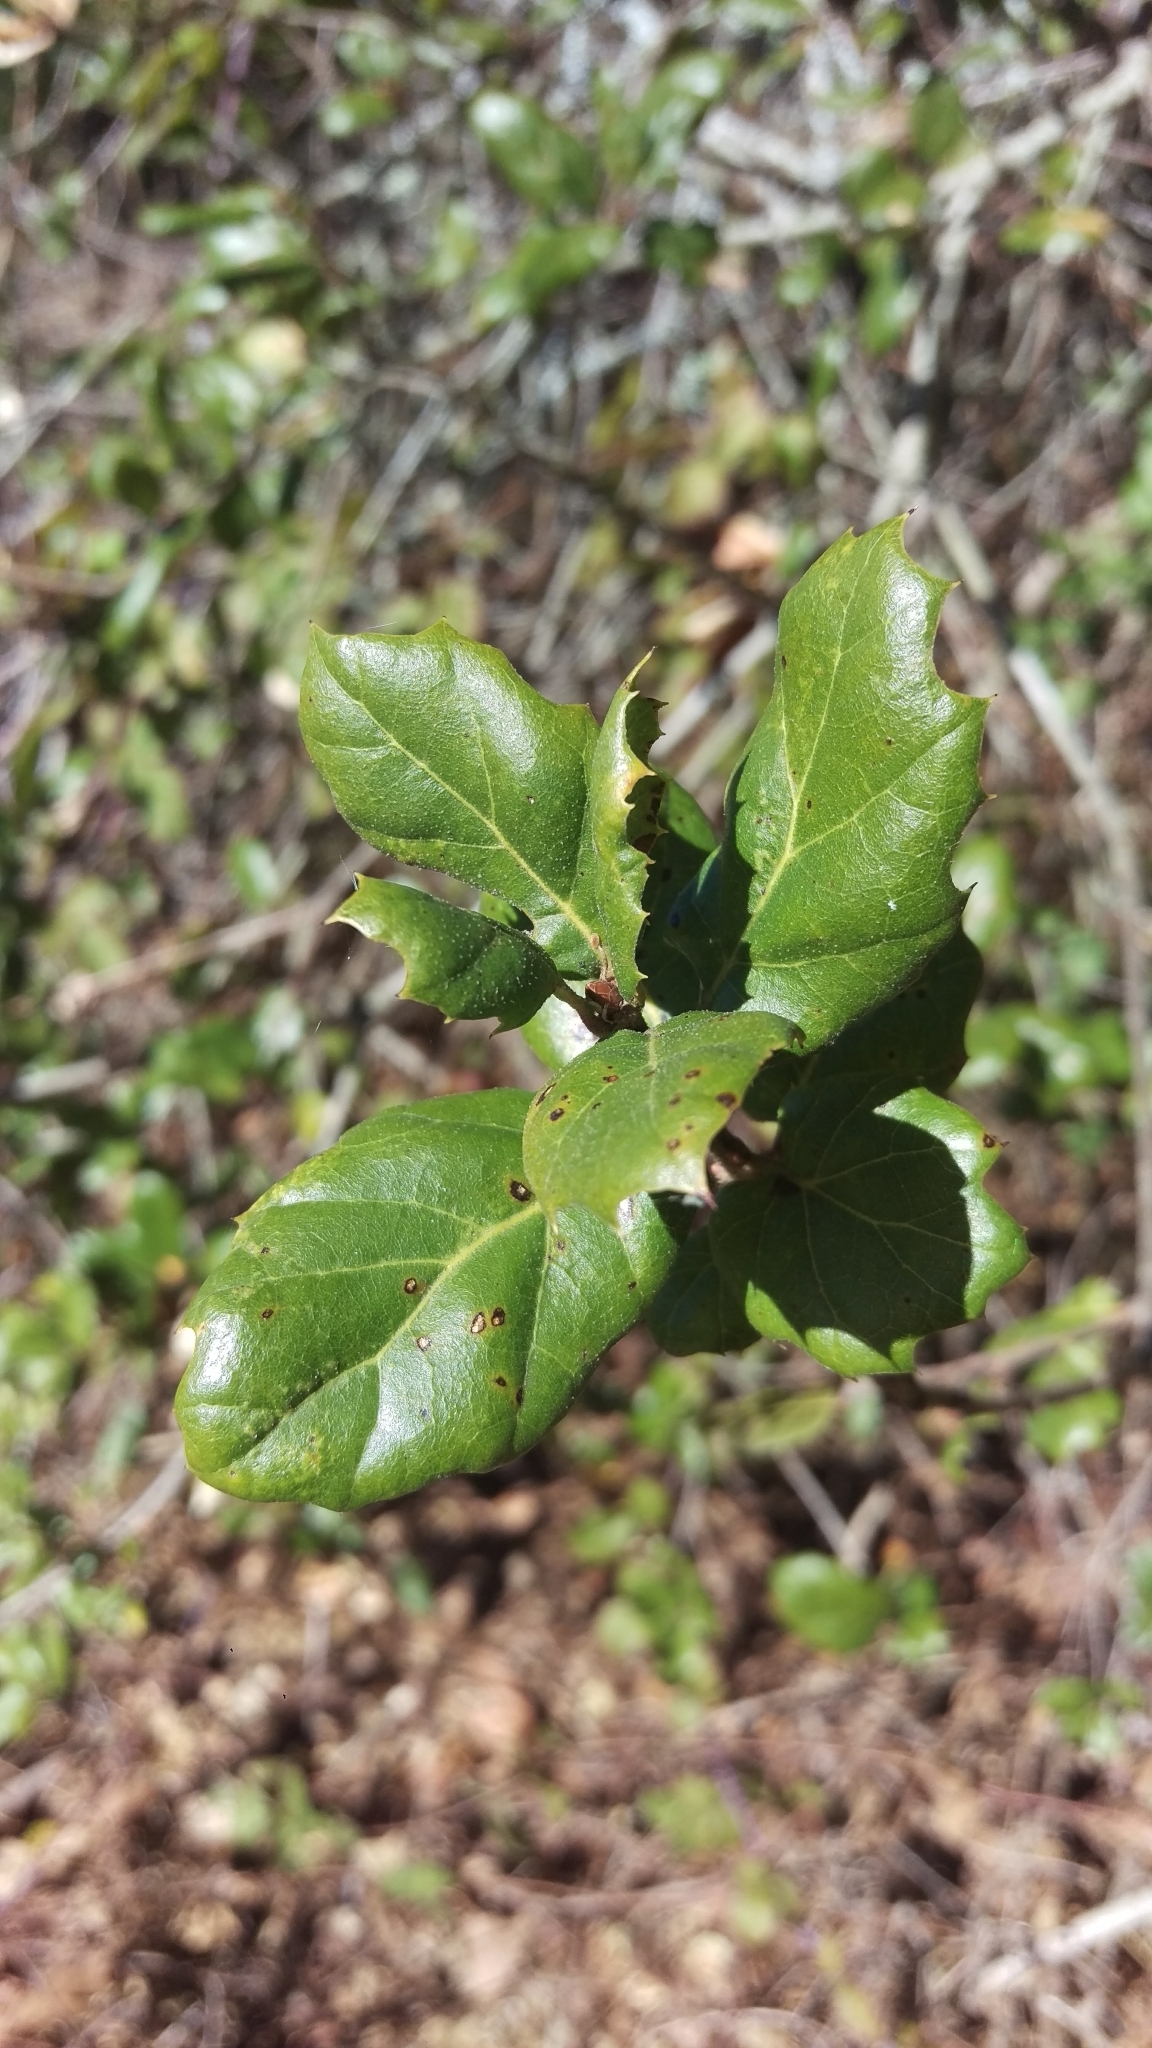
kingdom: Plantae
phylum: Tracheophyta
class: Magnoliopsida
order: Fagales
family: Fagaceae
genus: Quercus
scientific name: Quercus agrifolia
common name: California live oak
